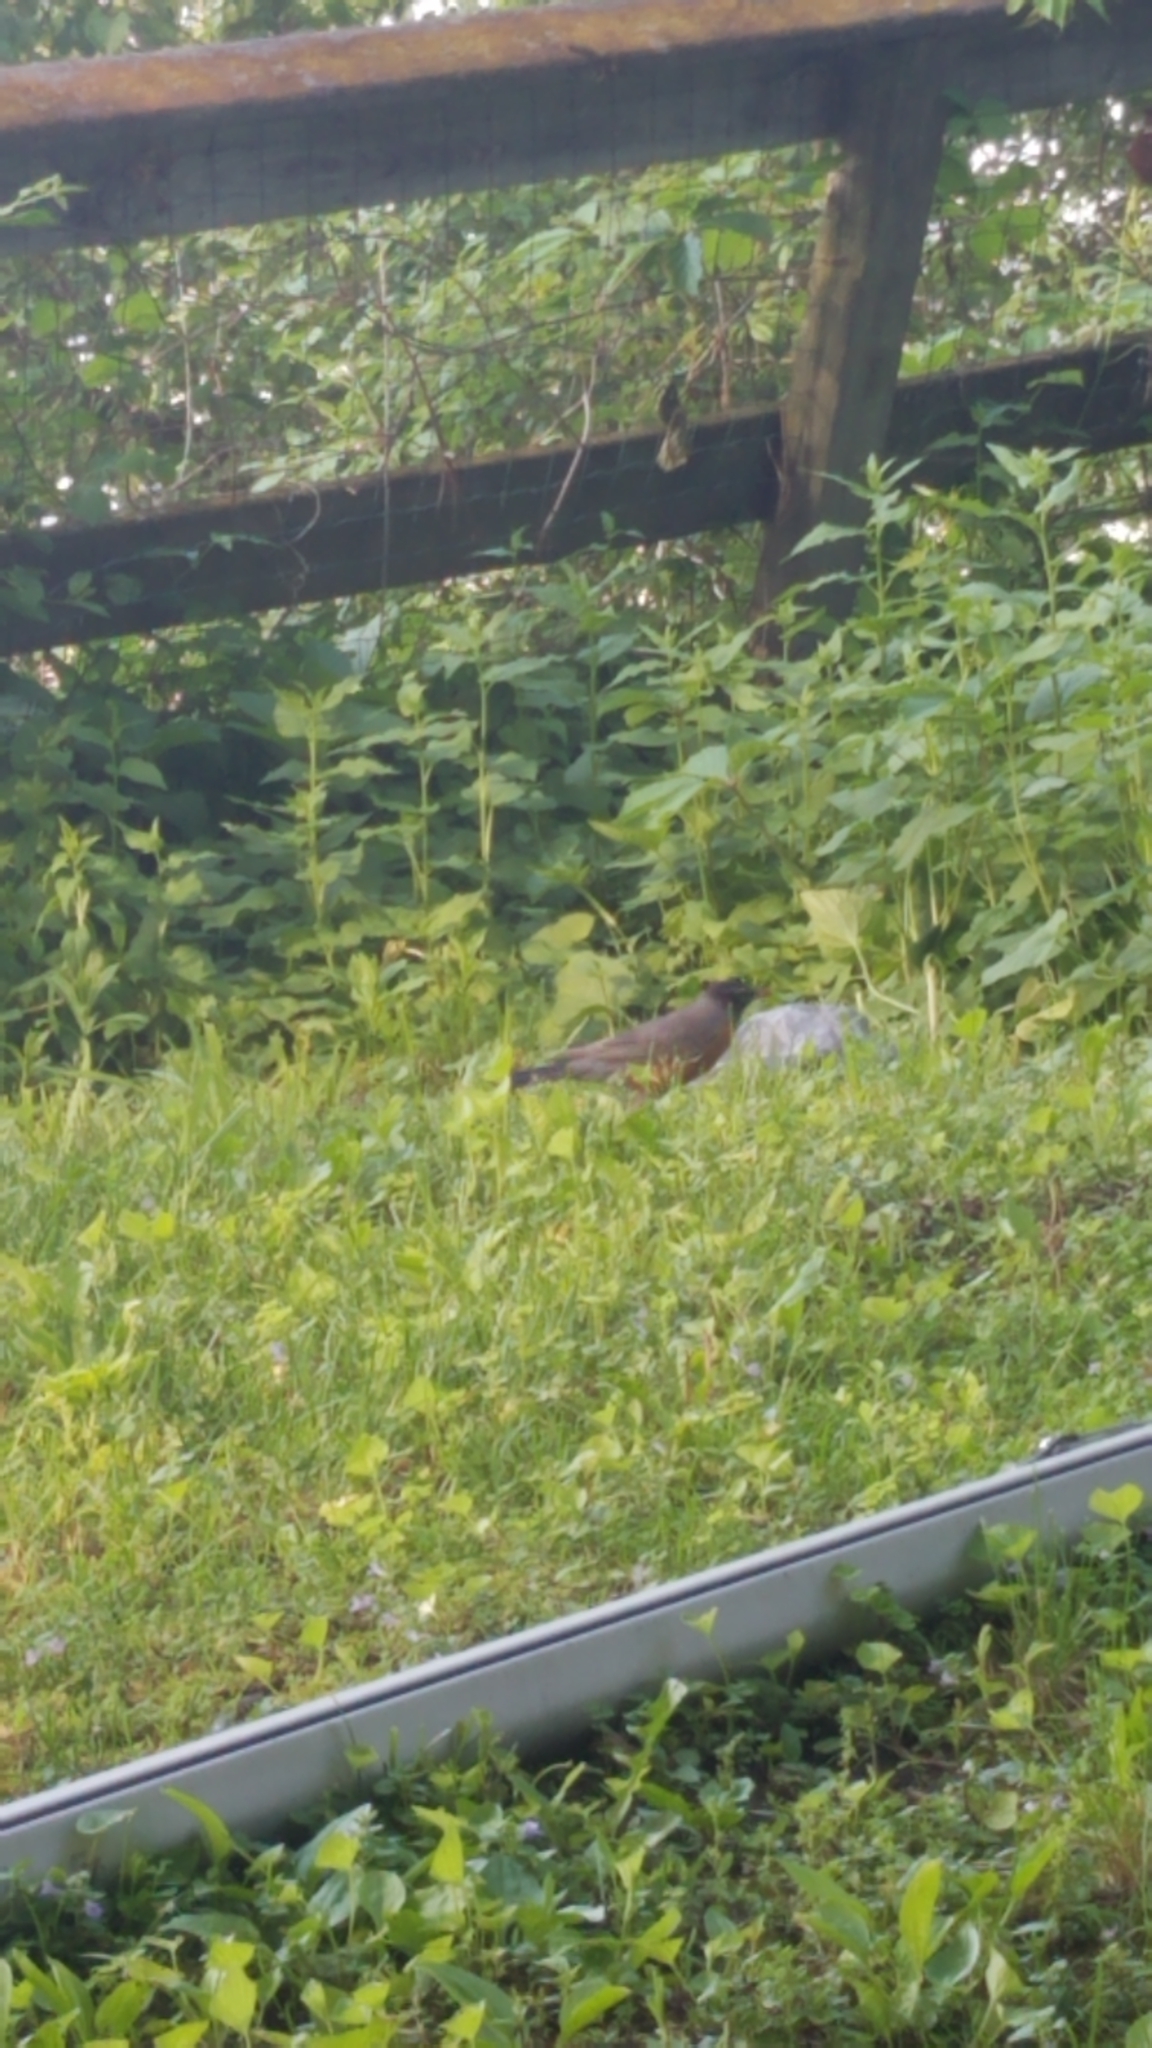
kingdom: Animalia
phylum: Chordata
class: Aves
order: Passeriformes
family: Turdidae
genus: Turdus
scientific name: Turdus migratorius
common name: American robin
